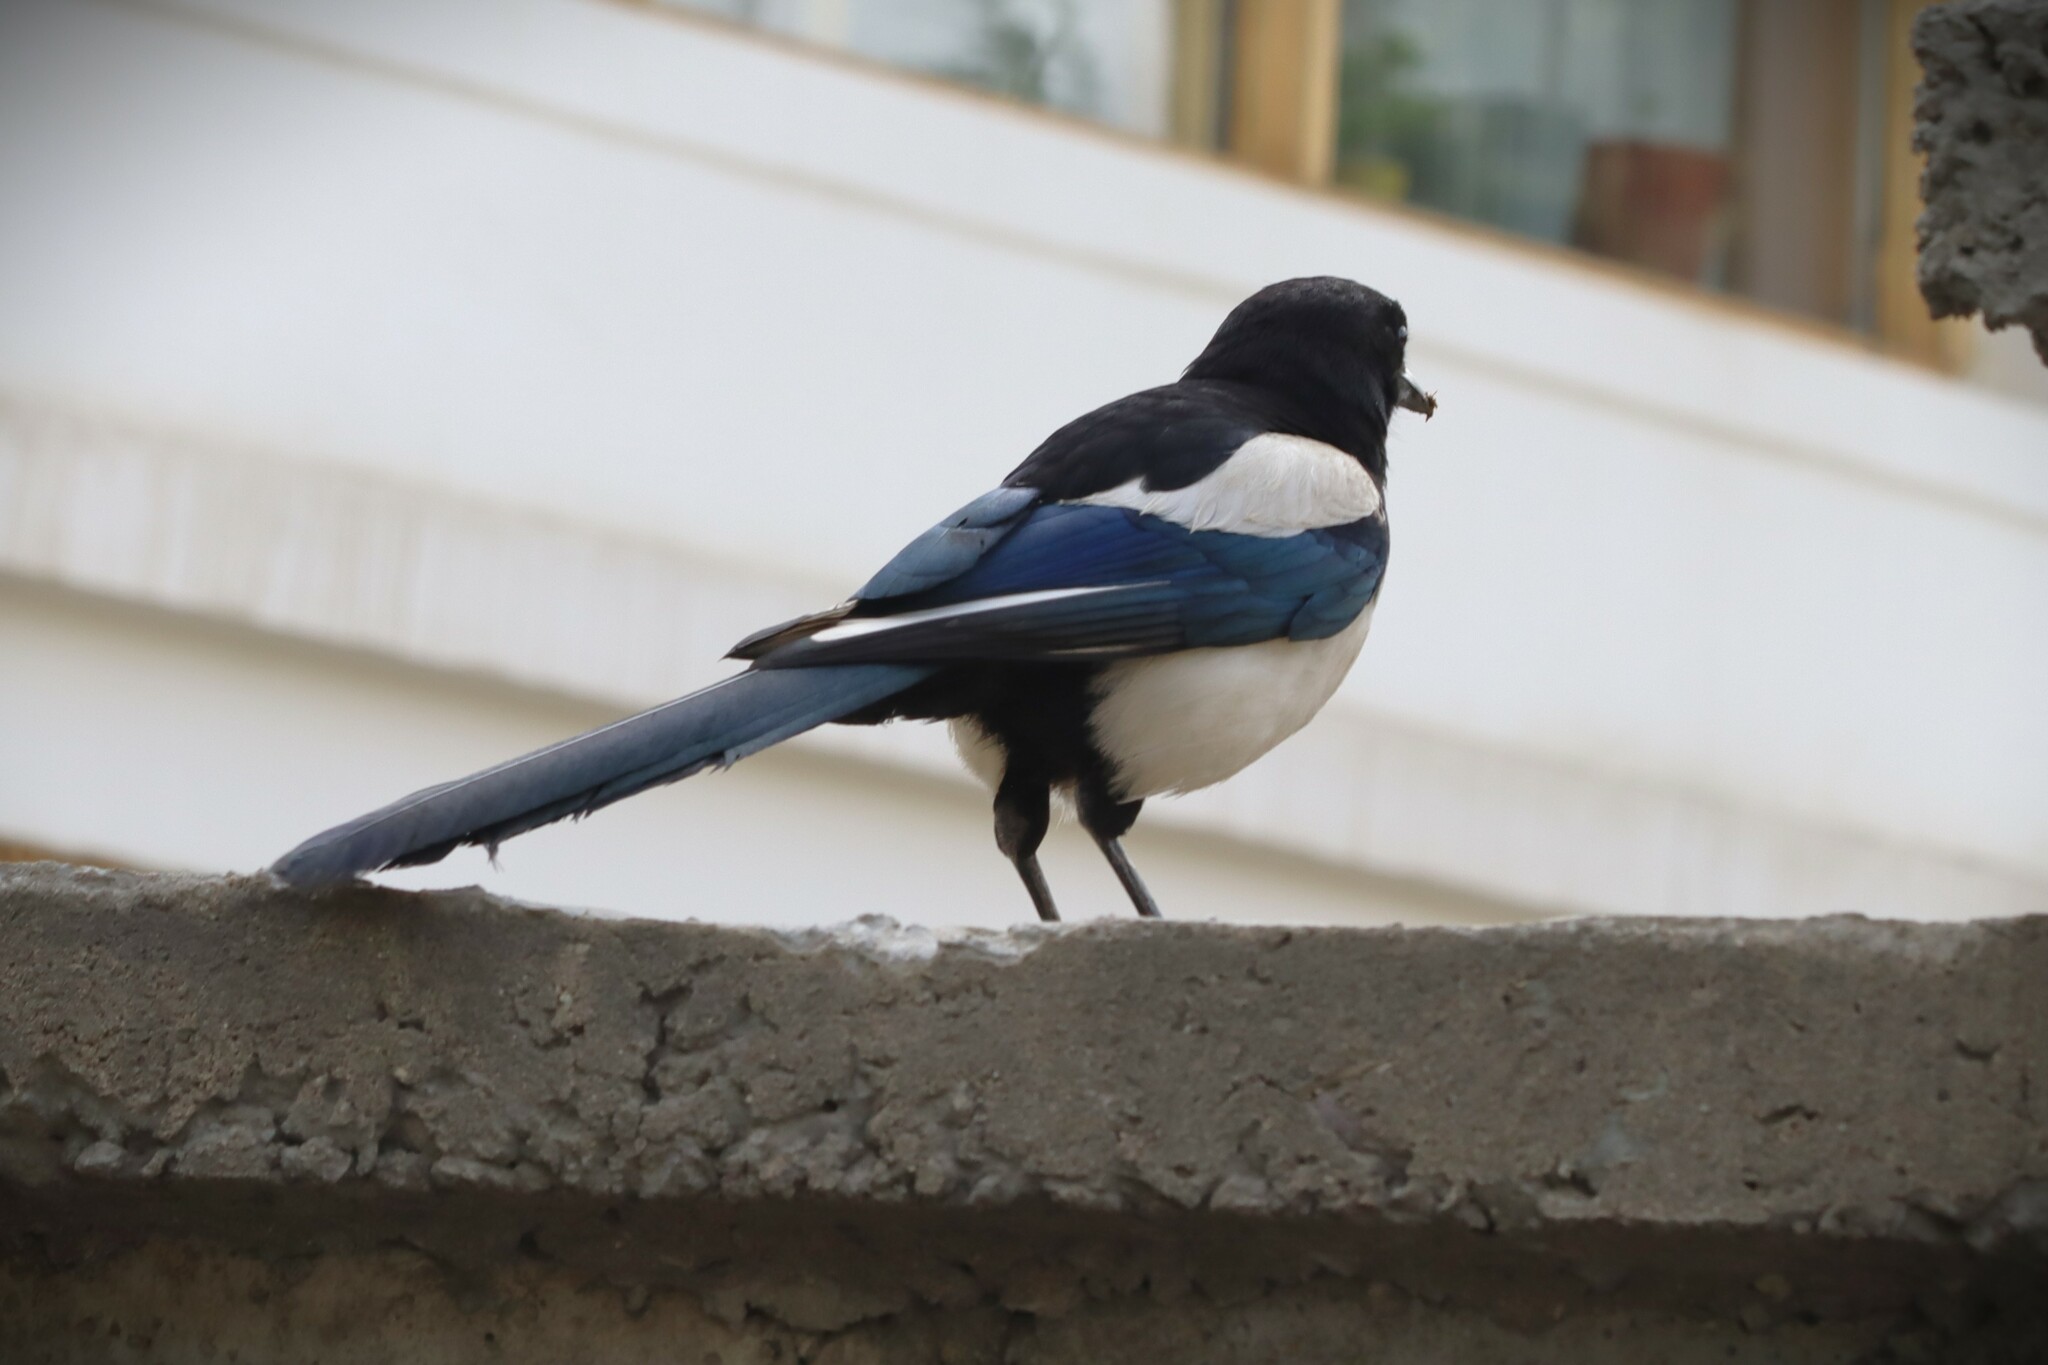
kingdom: Animalia
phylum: Chordata
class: Aves
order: Passeriformes
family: Corvidae
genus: Pica
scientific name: Pica pica
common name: Eurasian magpie
